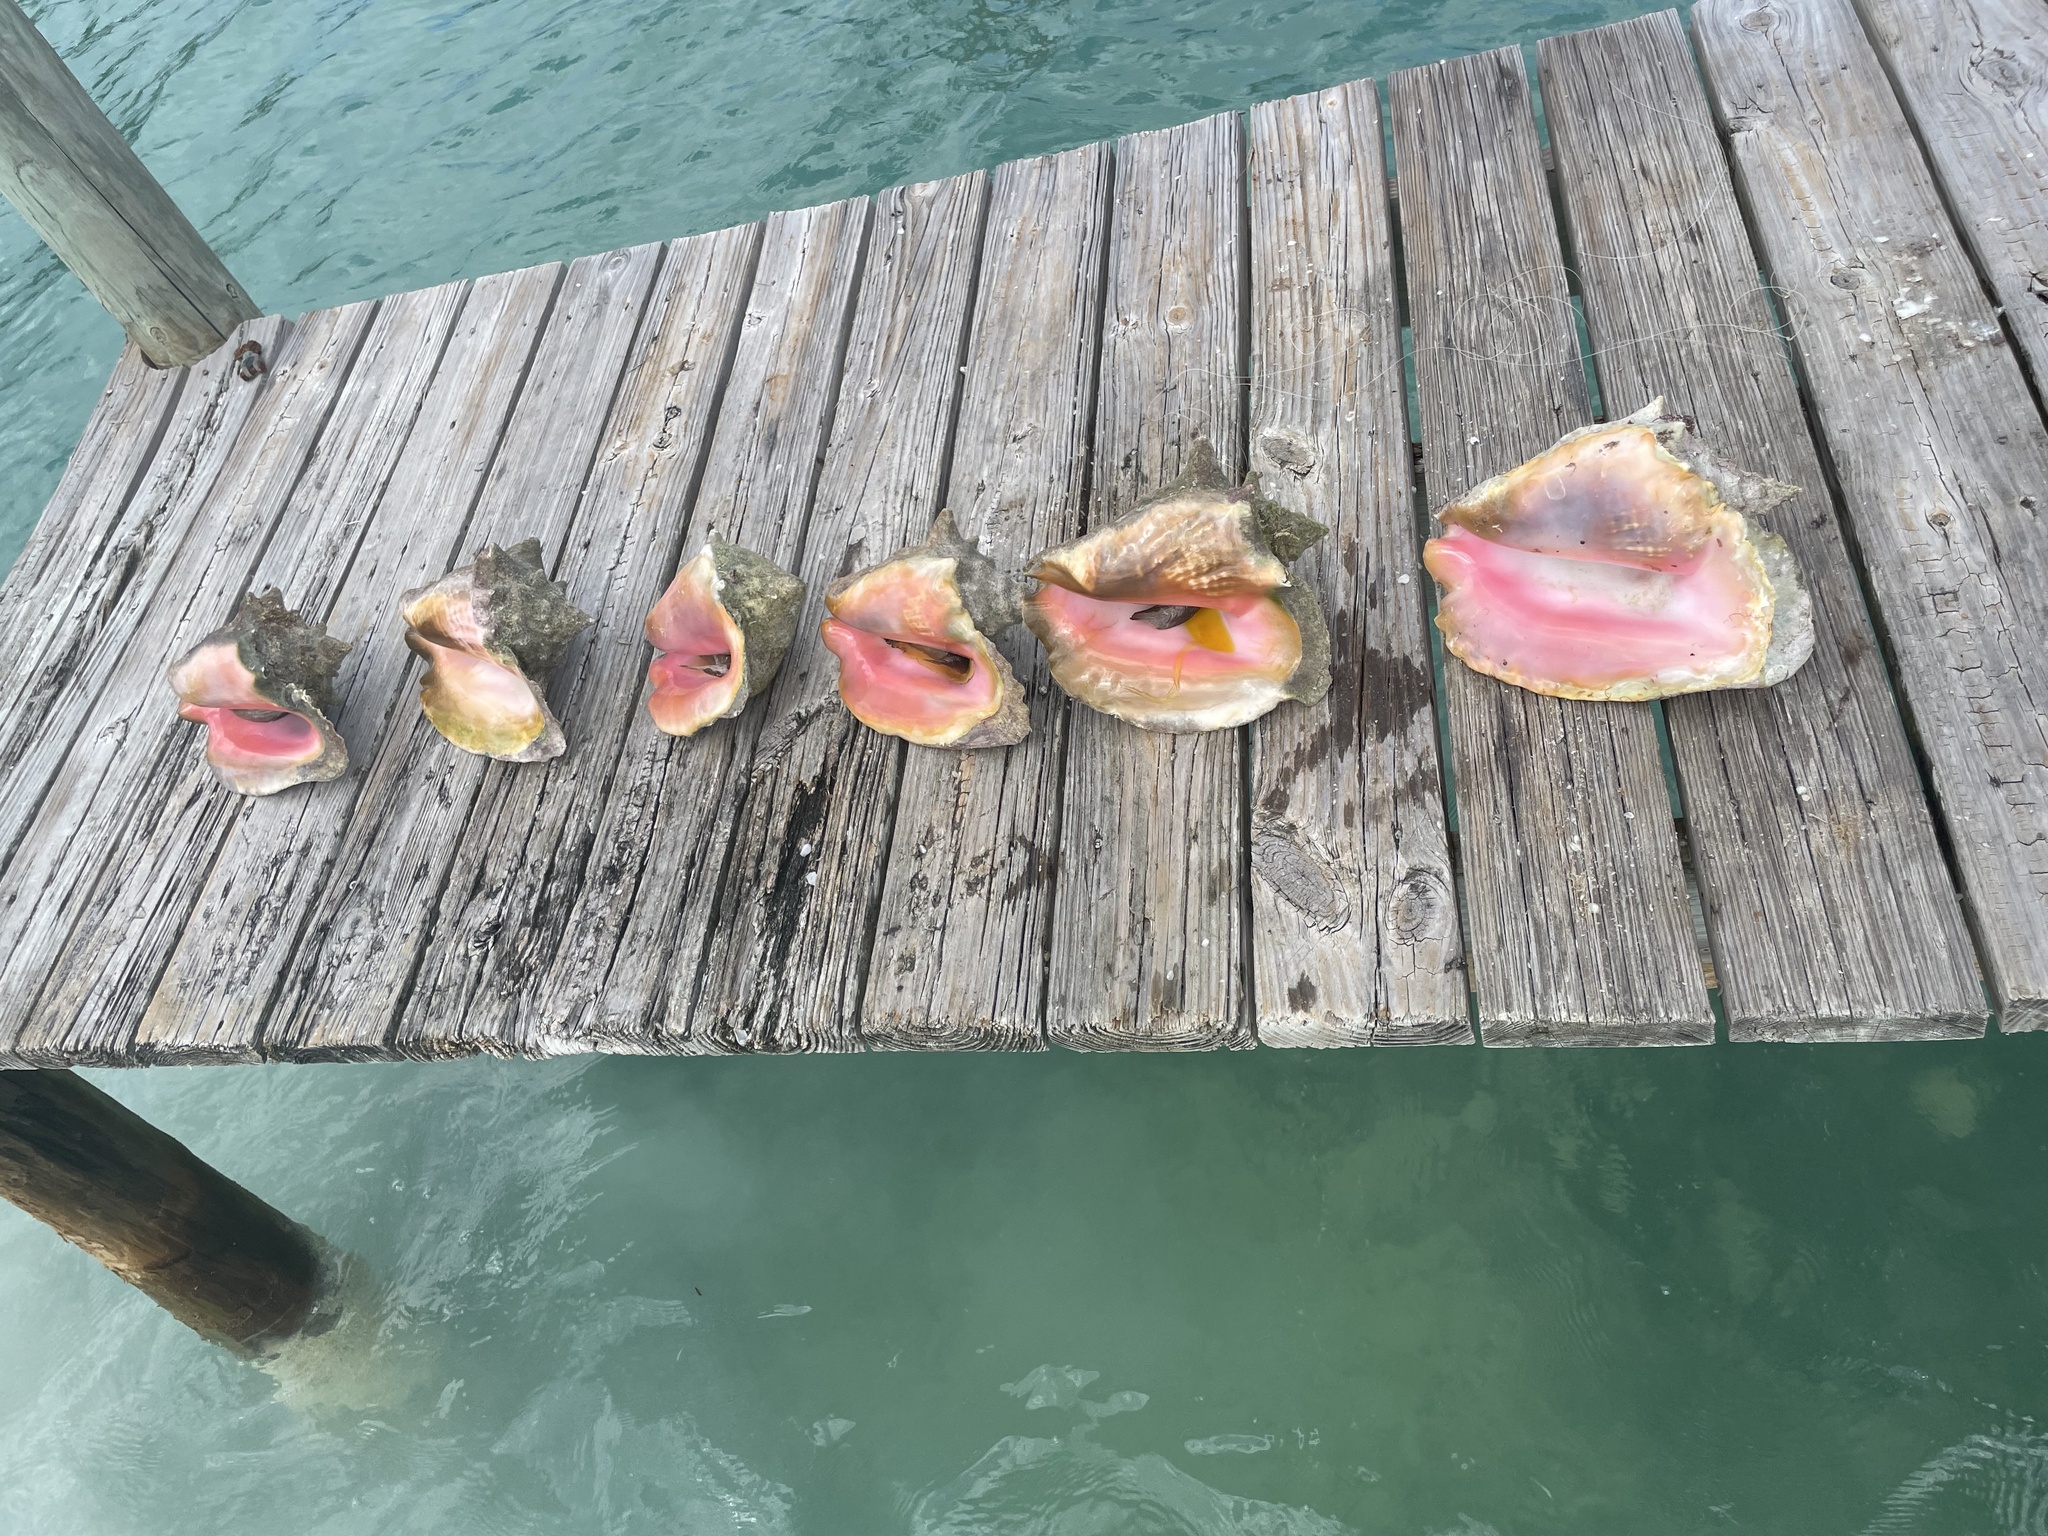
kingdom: Animalia
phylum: Mollusca
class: Gastropoda
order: Littorinimorpha
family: Strombidae
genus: Aliger
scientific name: Aliger gigas
